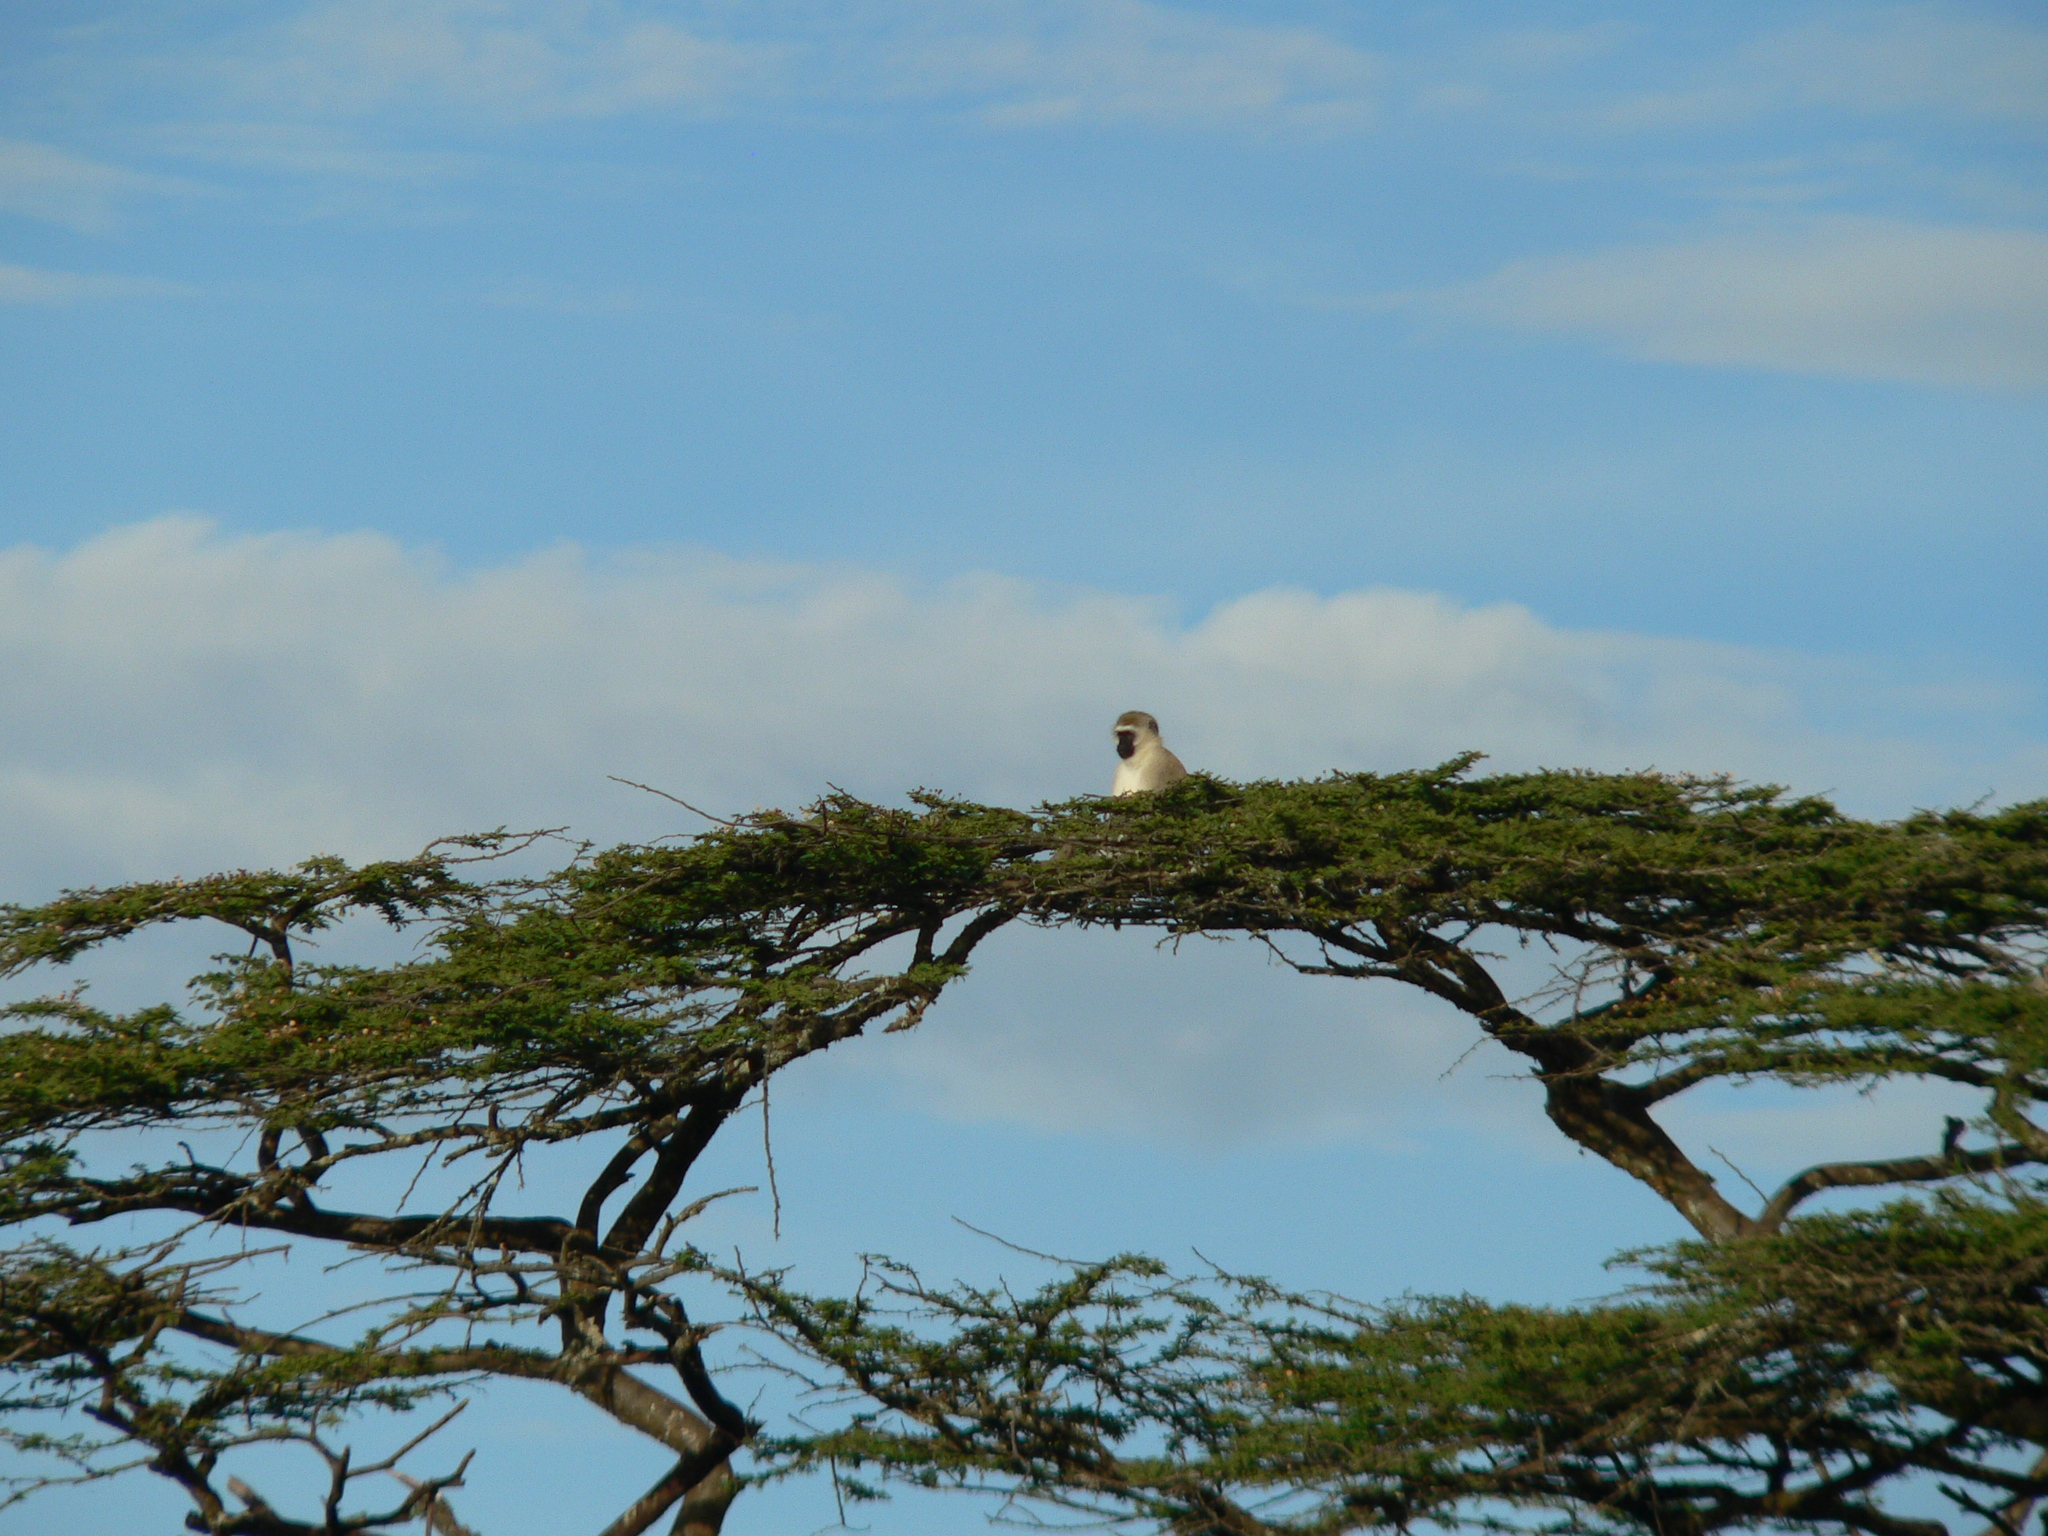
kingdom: Animalia
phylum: Chordata
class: Mammalia
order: Primates
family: Cercopithecidae
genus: Chlorocebus
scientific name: Chlorocebus pygerythrus
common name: Vervet monkey
